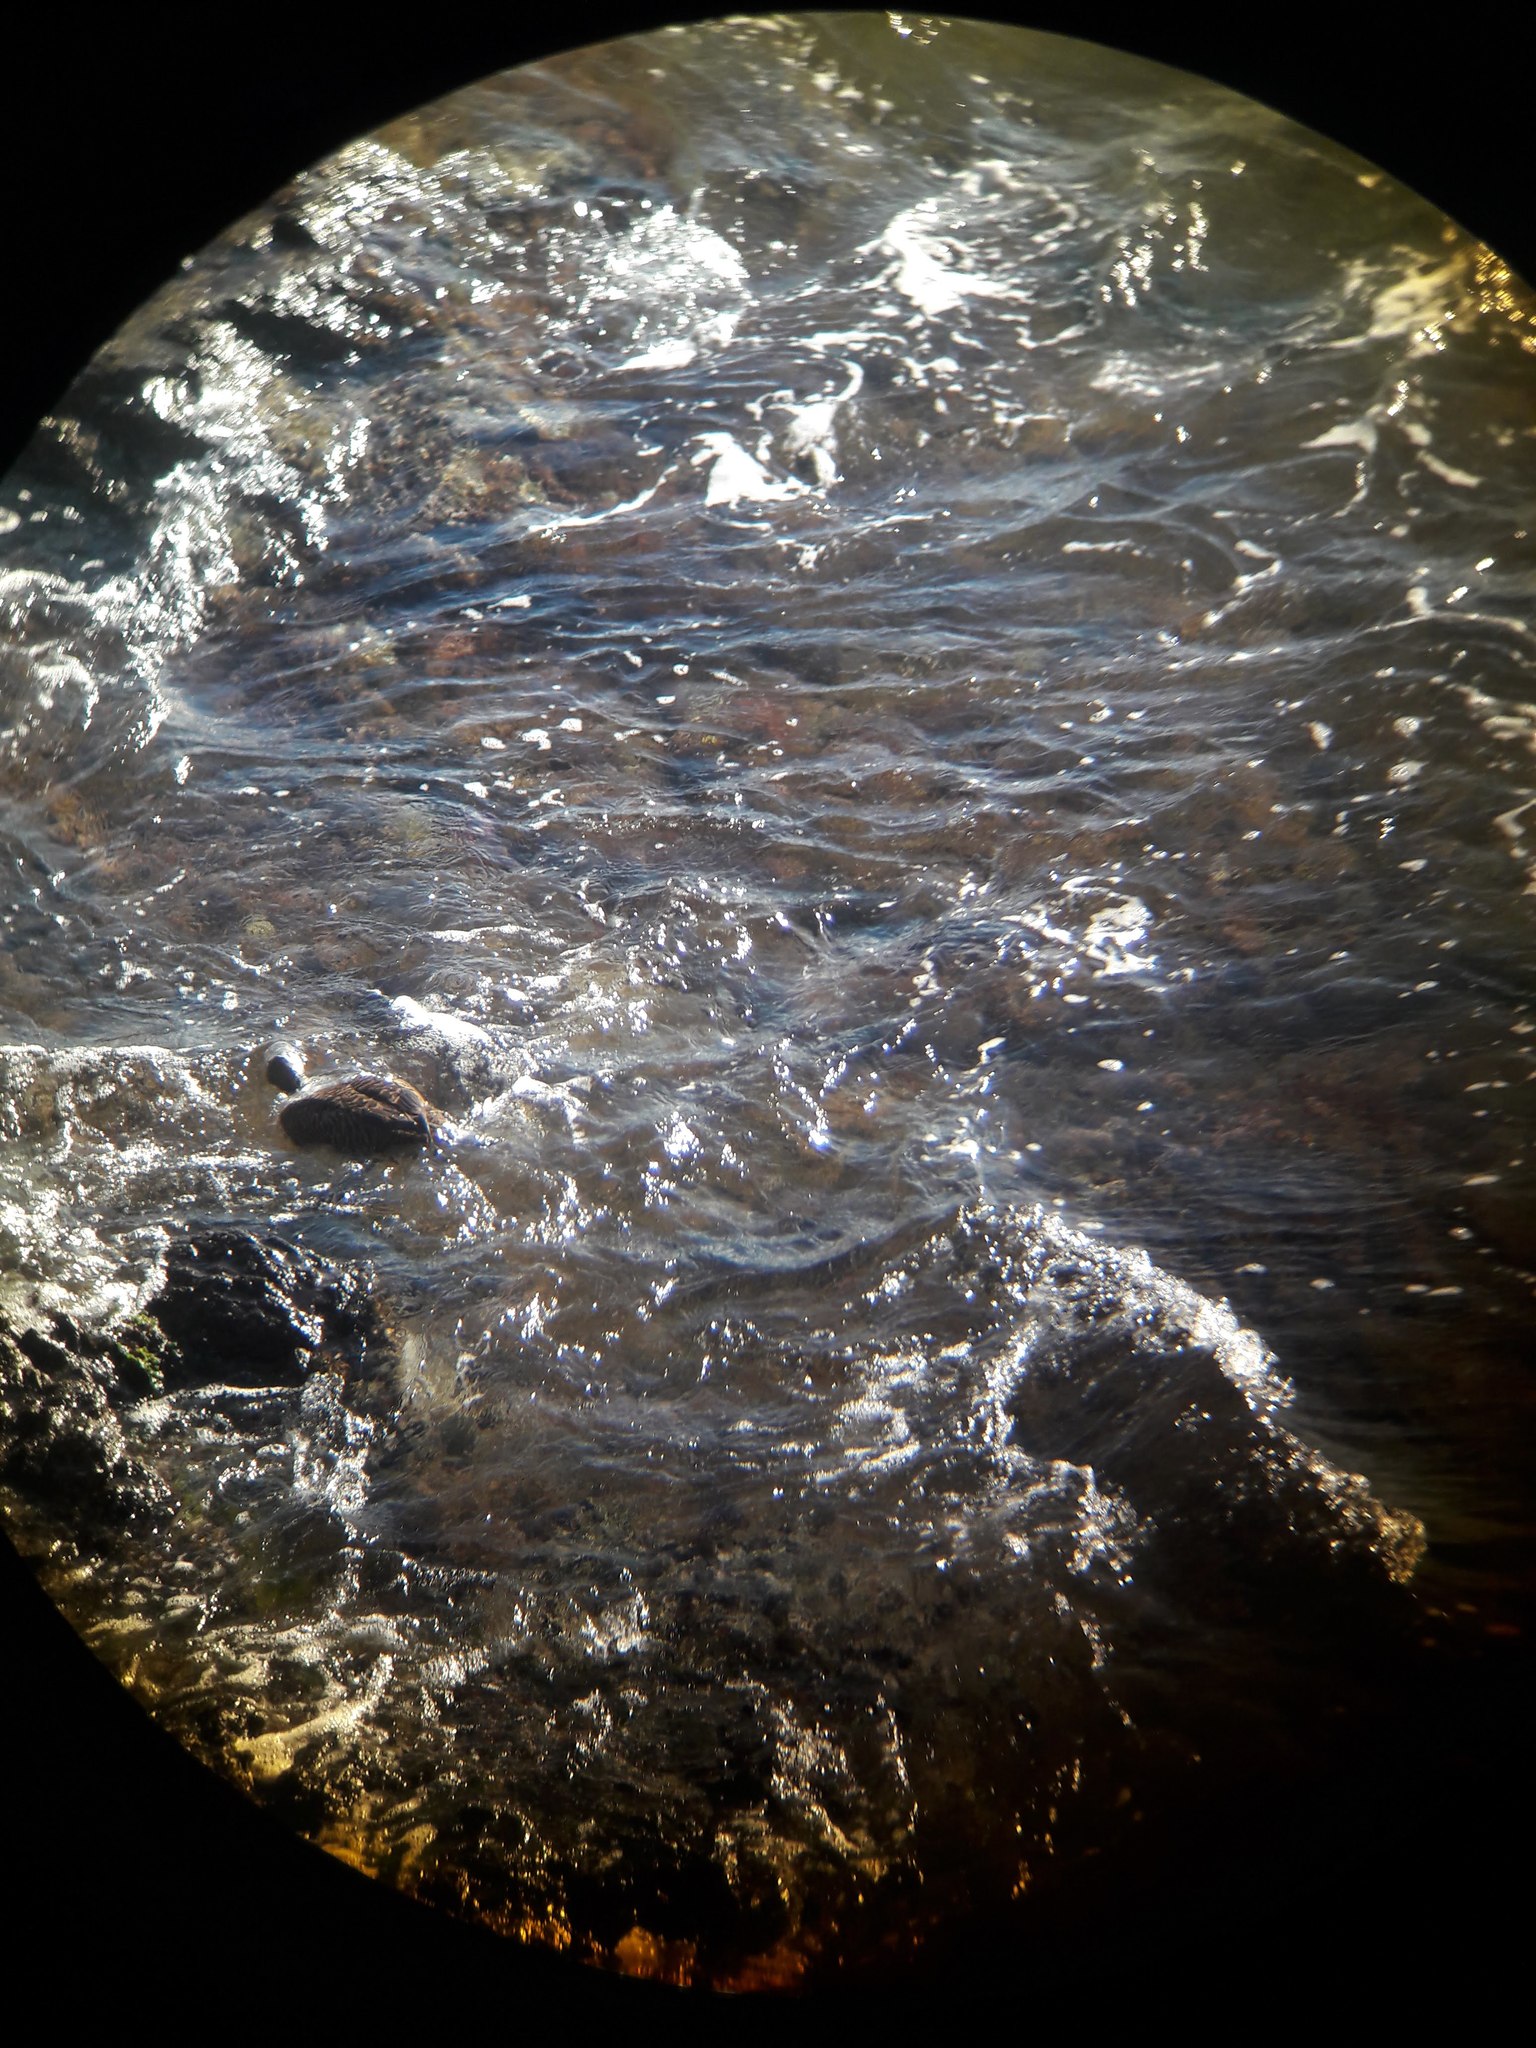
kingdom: Animalia
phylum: Chordata
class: Aves
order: Anseriformes
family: Anatidae
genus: Somateria
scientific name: Somateria mollissima
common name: Common eider
